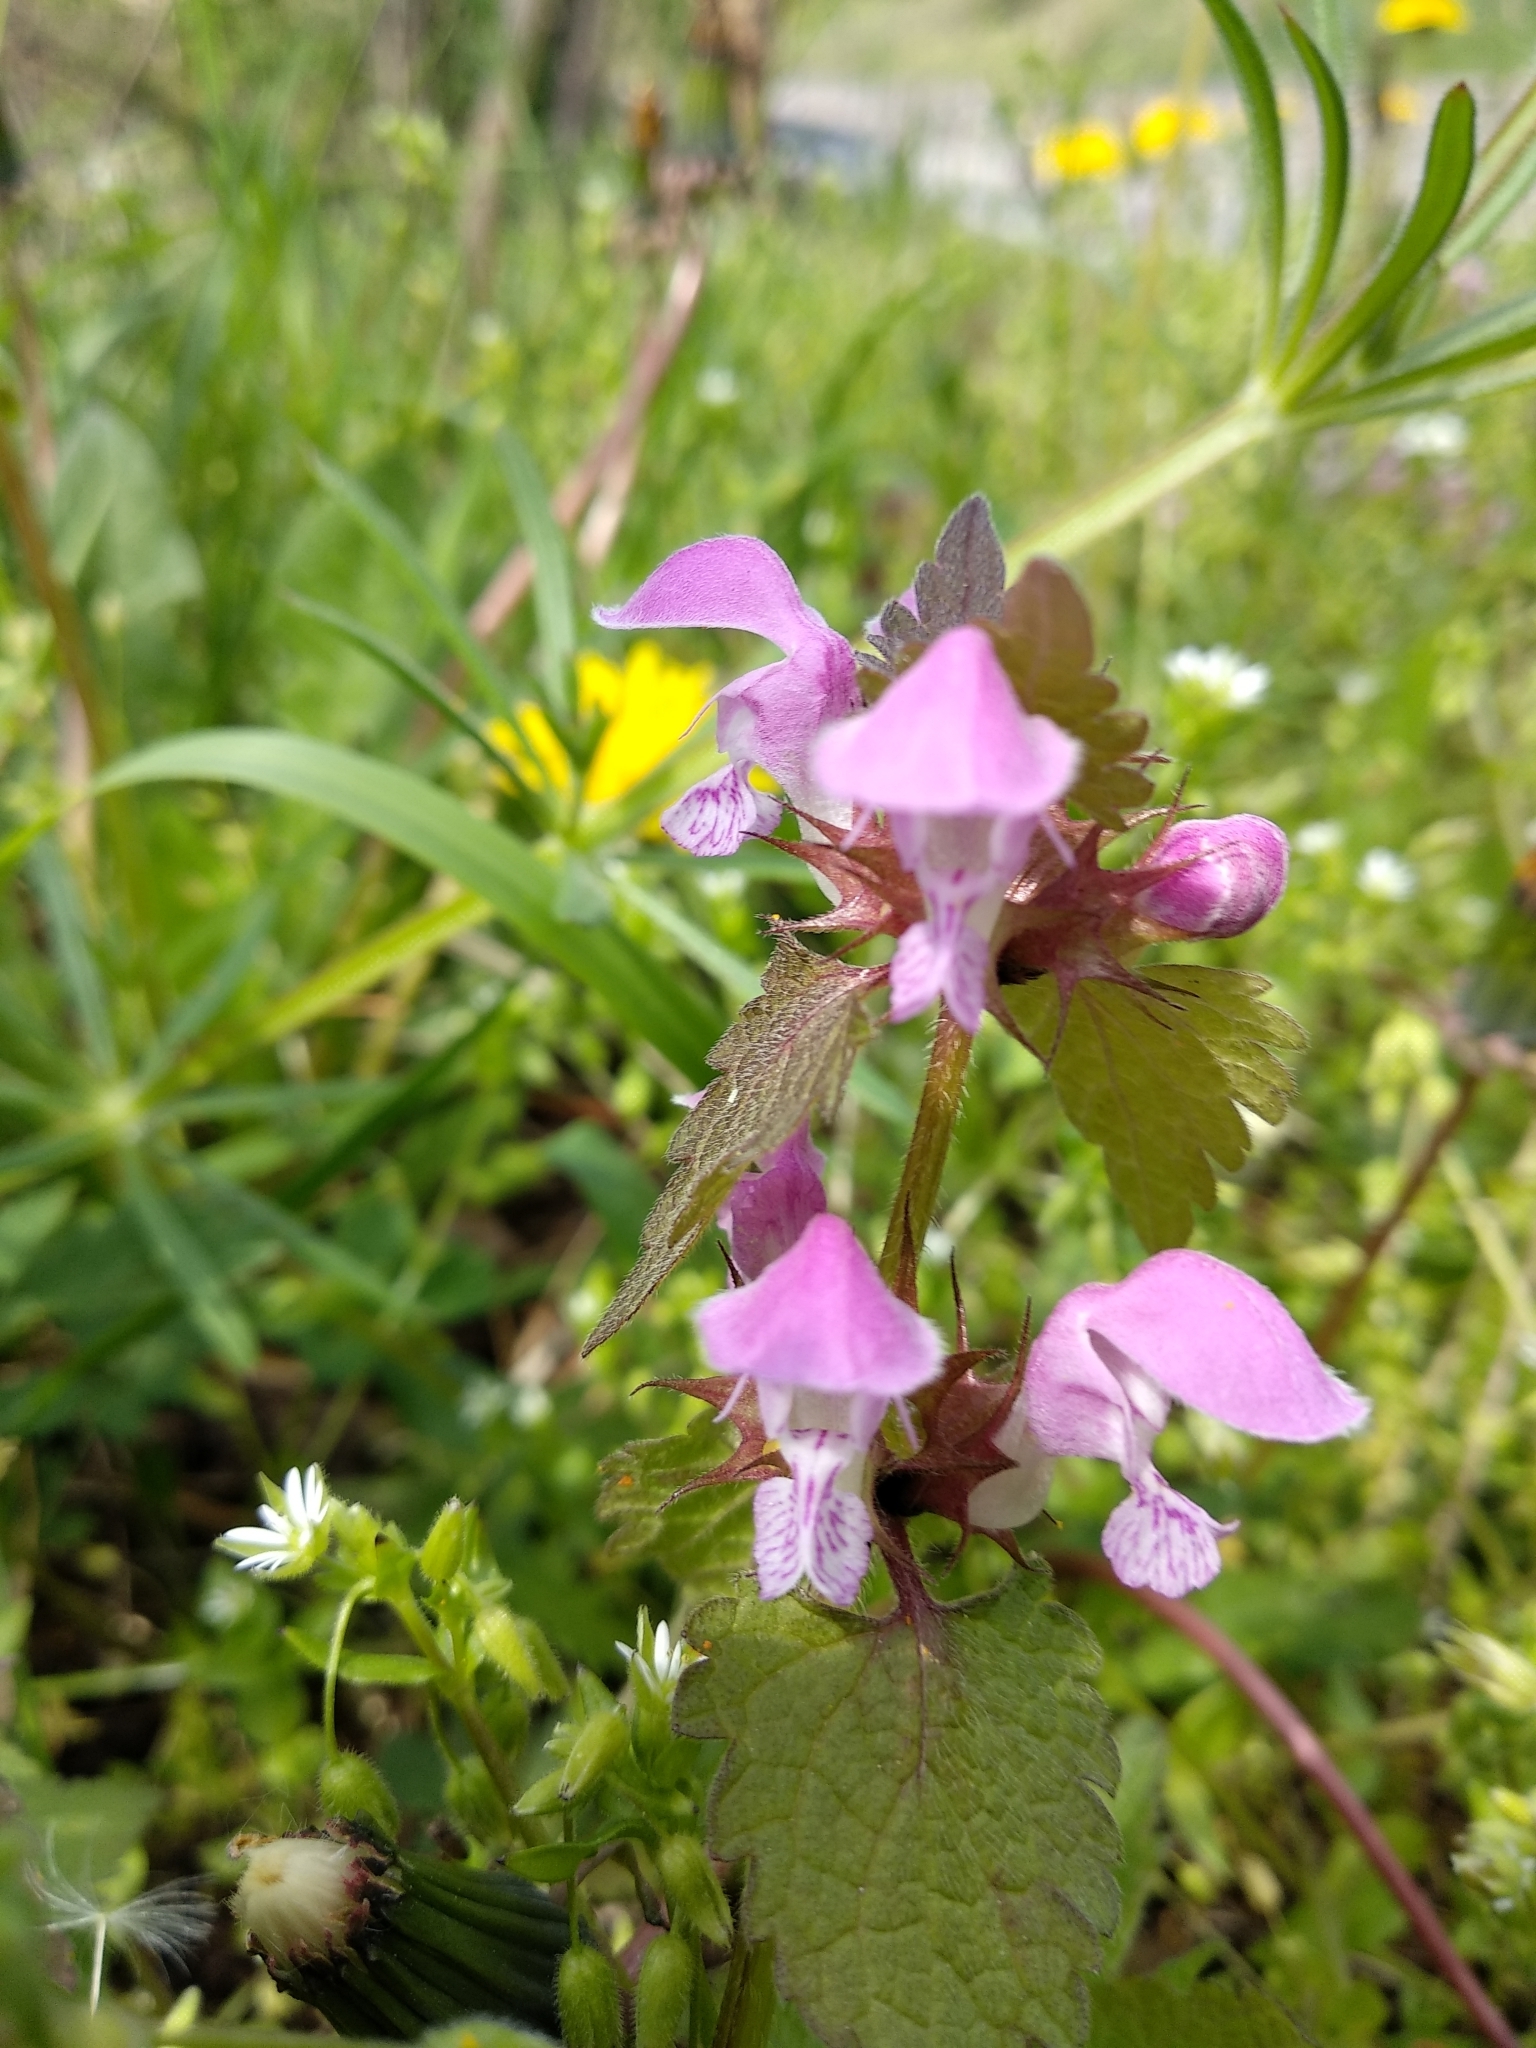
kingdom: Plantae
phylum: Tracheophyta
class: Magnoliopsida
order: Lamiales
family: Lamiaceae
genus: Lamium
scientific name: Lamium purpureum
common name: Red dead-nettle
